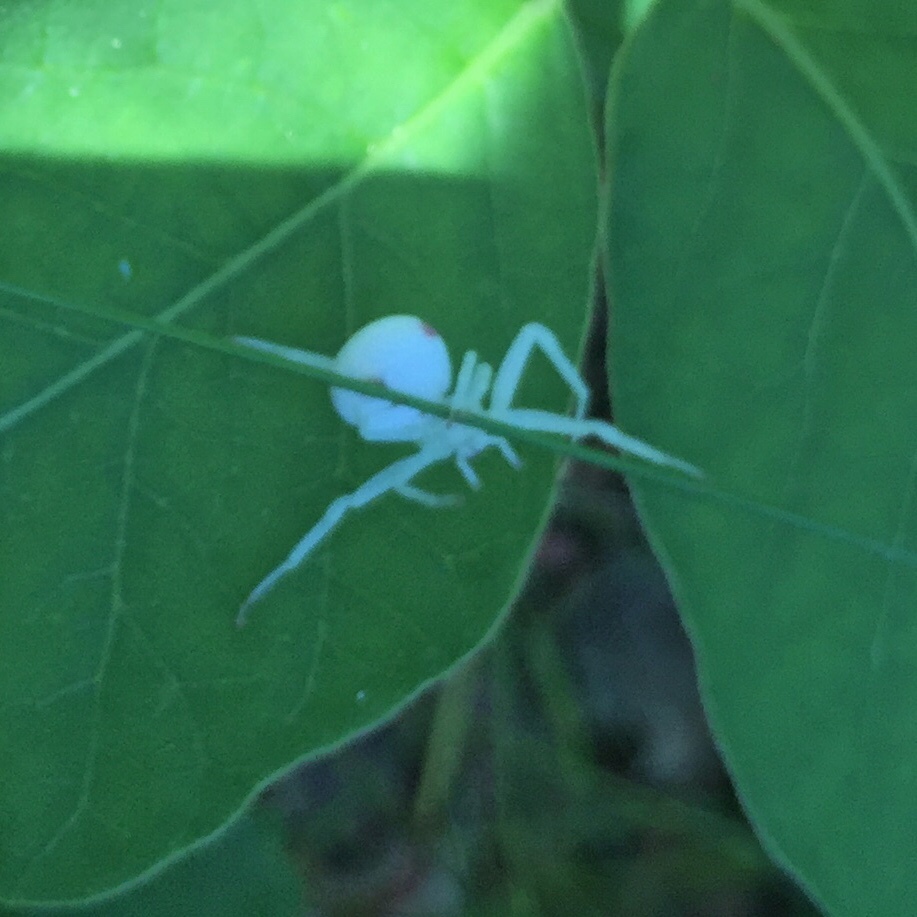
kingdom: Animalia
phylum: Arthropoda
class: Arachnida
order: Araneae
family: Thomisidae
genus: Misumena
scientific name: Misumena vatia
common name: Goldenrod crab spider
